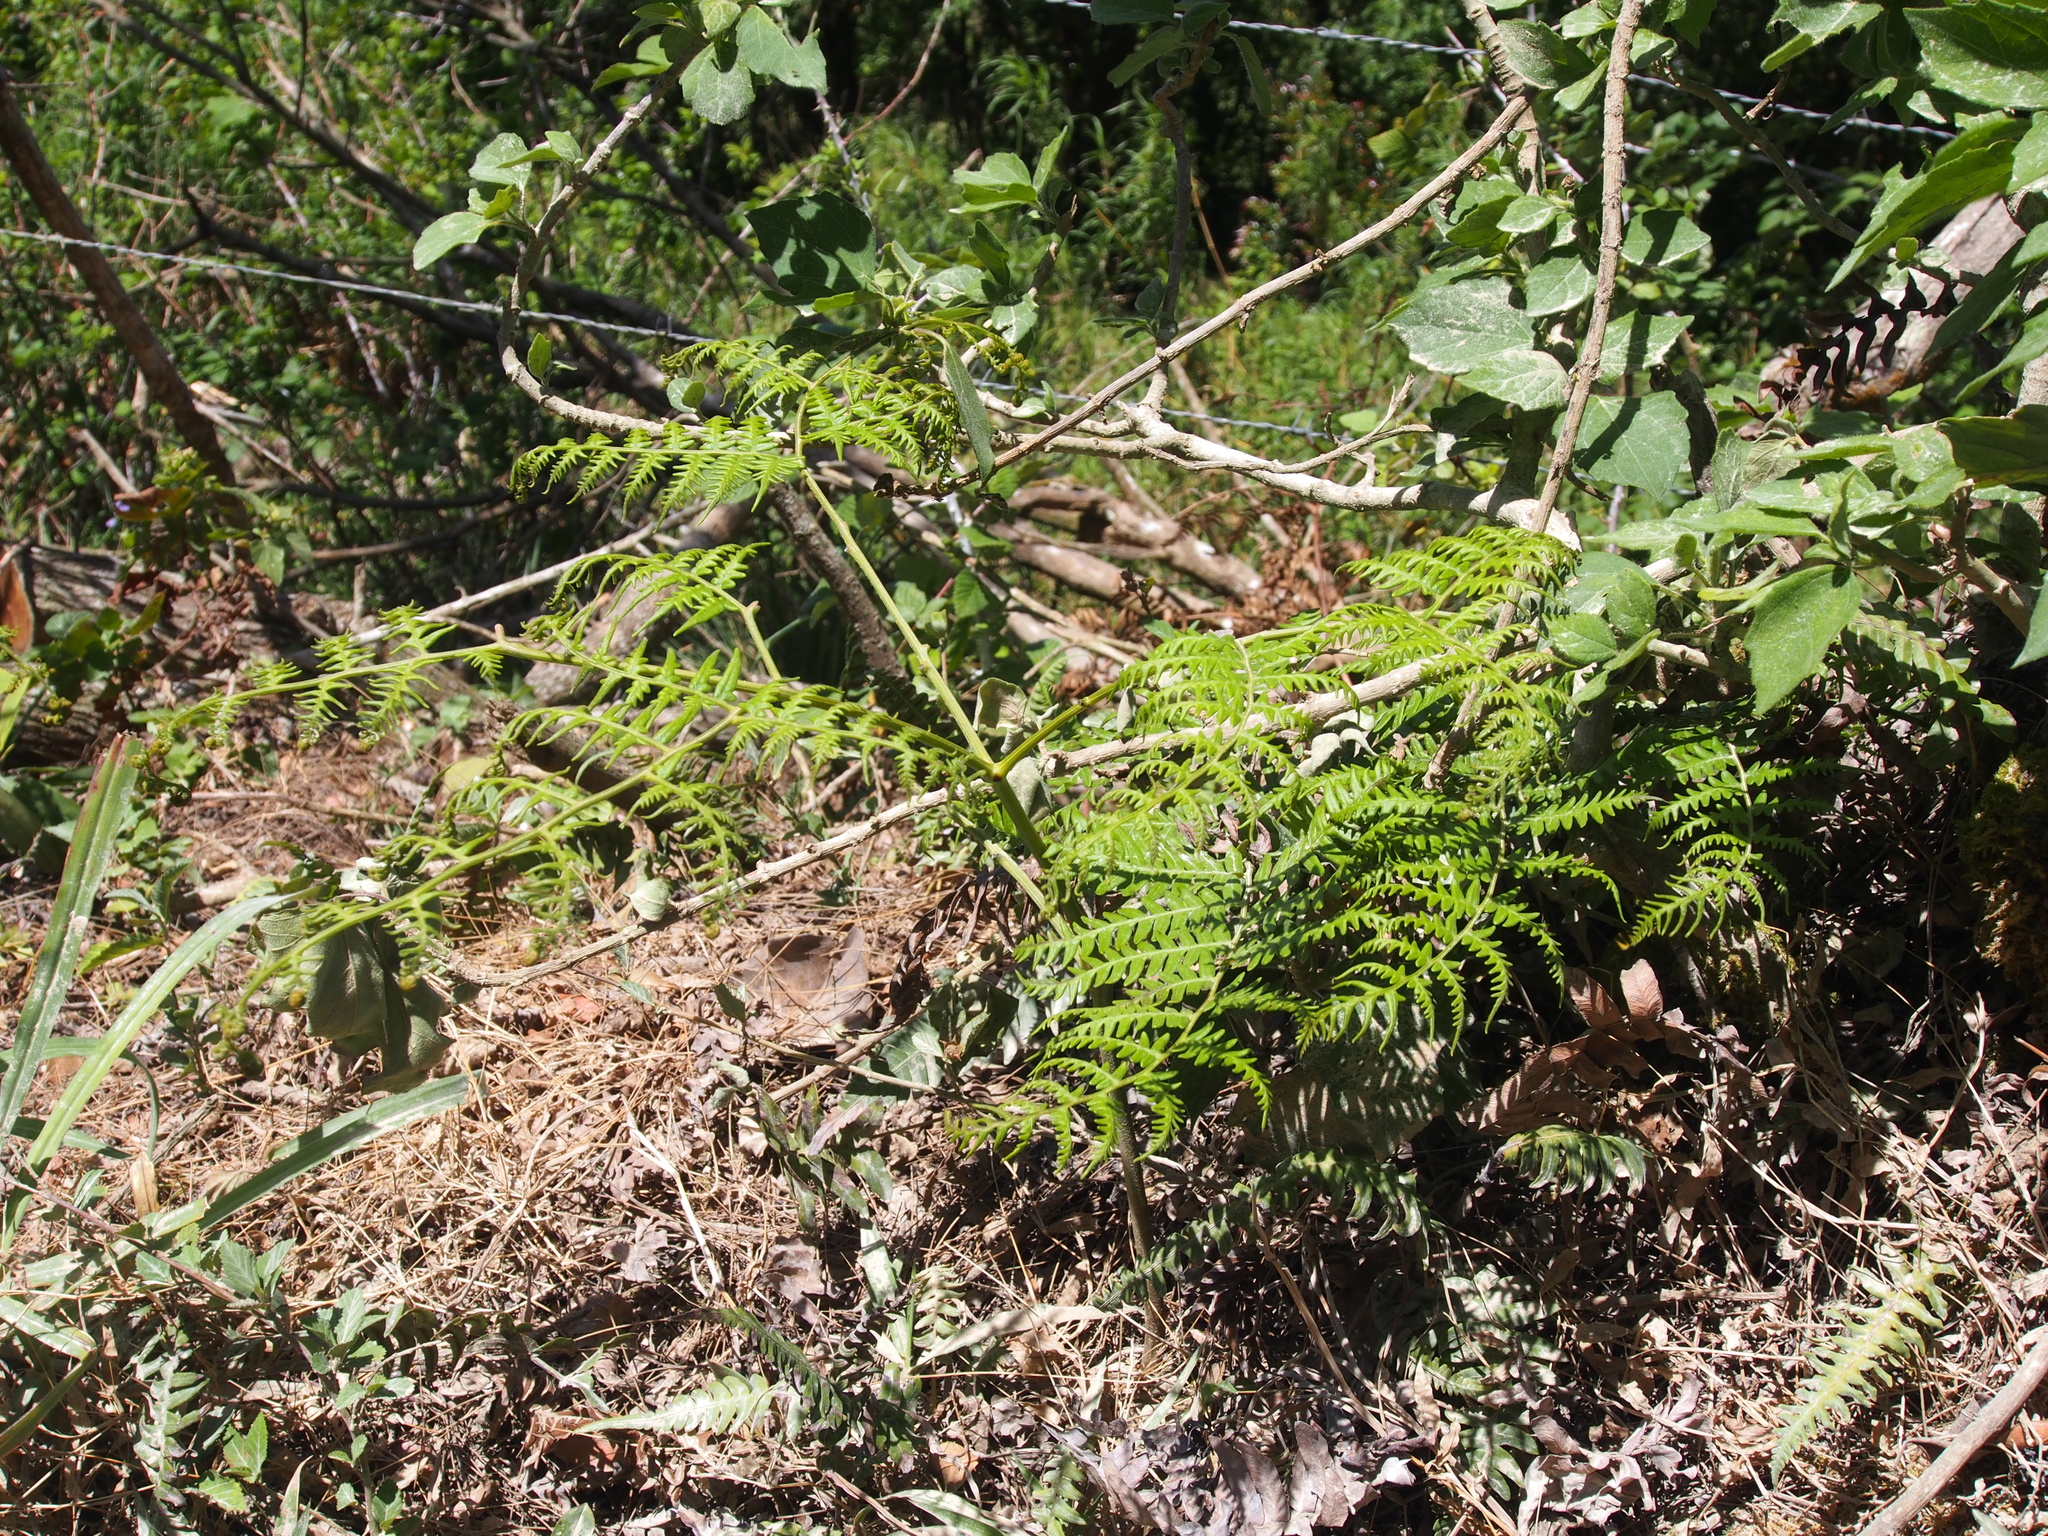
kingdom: Plantae
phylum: Tracheophyta
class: Polypodiopsida
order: Polypodiales
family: Dennstaedtiaceae
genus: Pteridium
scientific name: Pteridium esculentum
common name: Bracken fern
